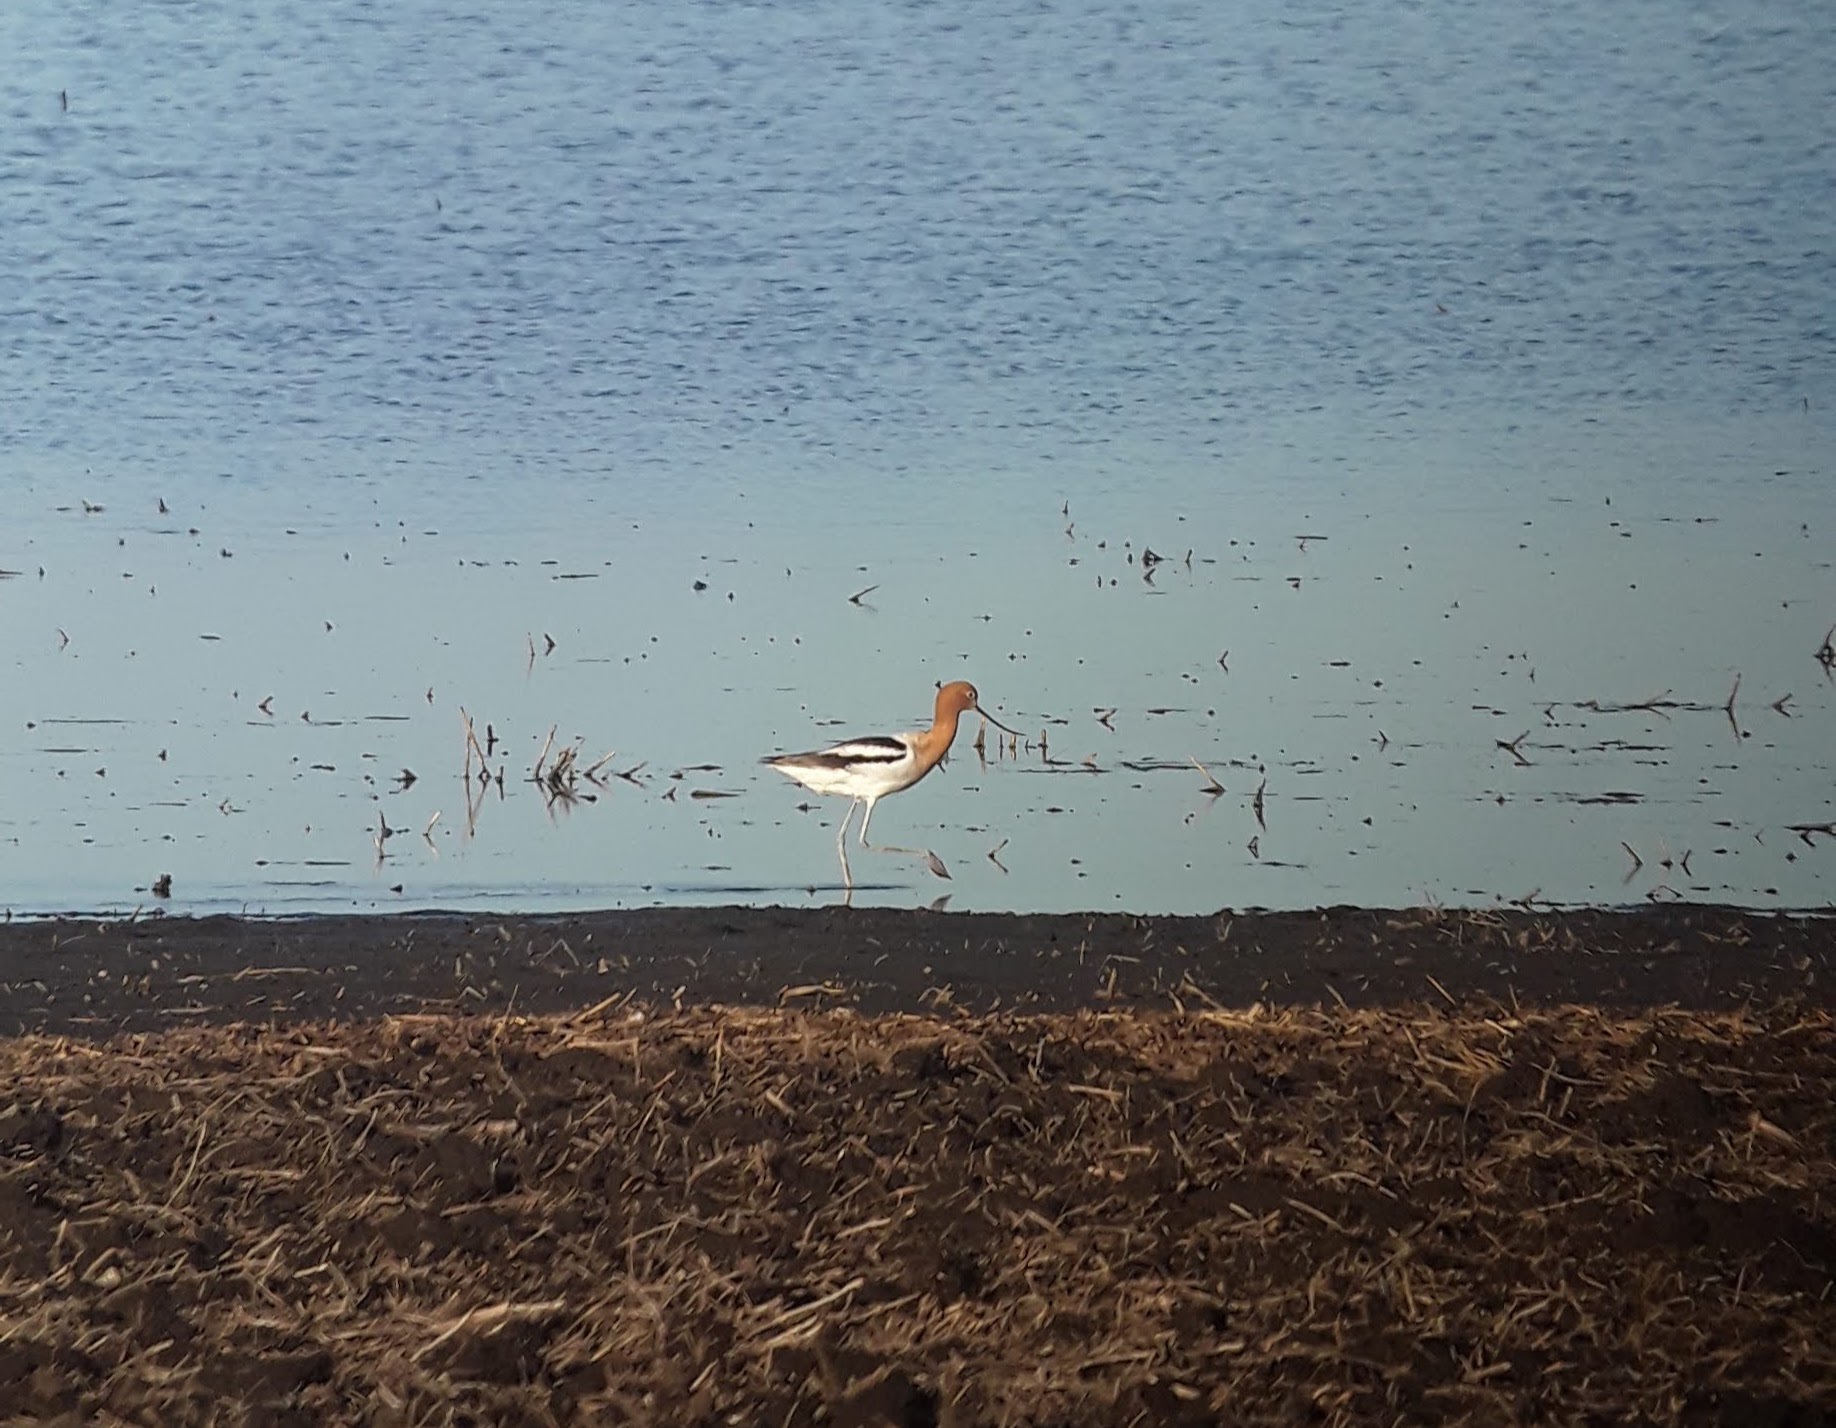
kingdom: Animalia
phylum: Chordata
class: Aves
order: Charadriiformes
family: Recurvirostridae
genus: Recurvirostra
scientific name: Recurvirostra americana
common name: American avocet
